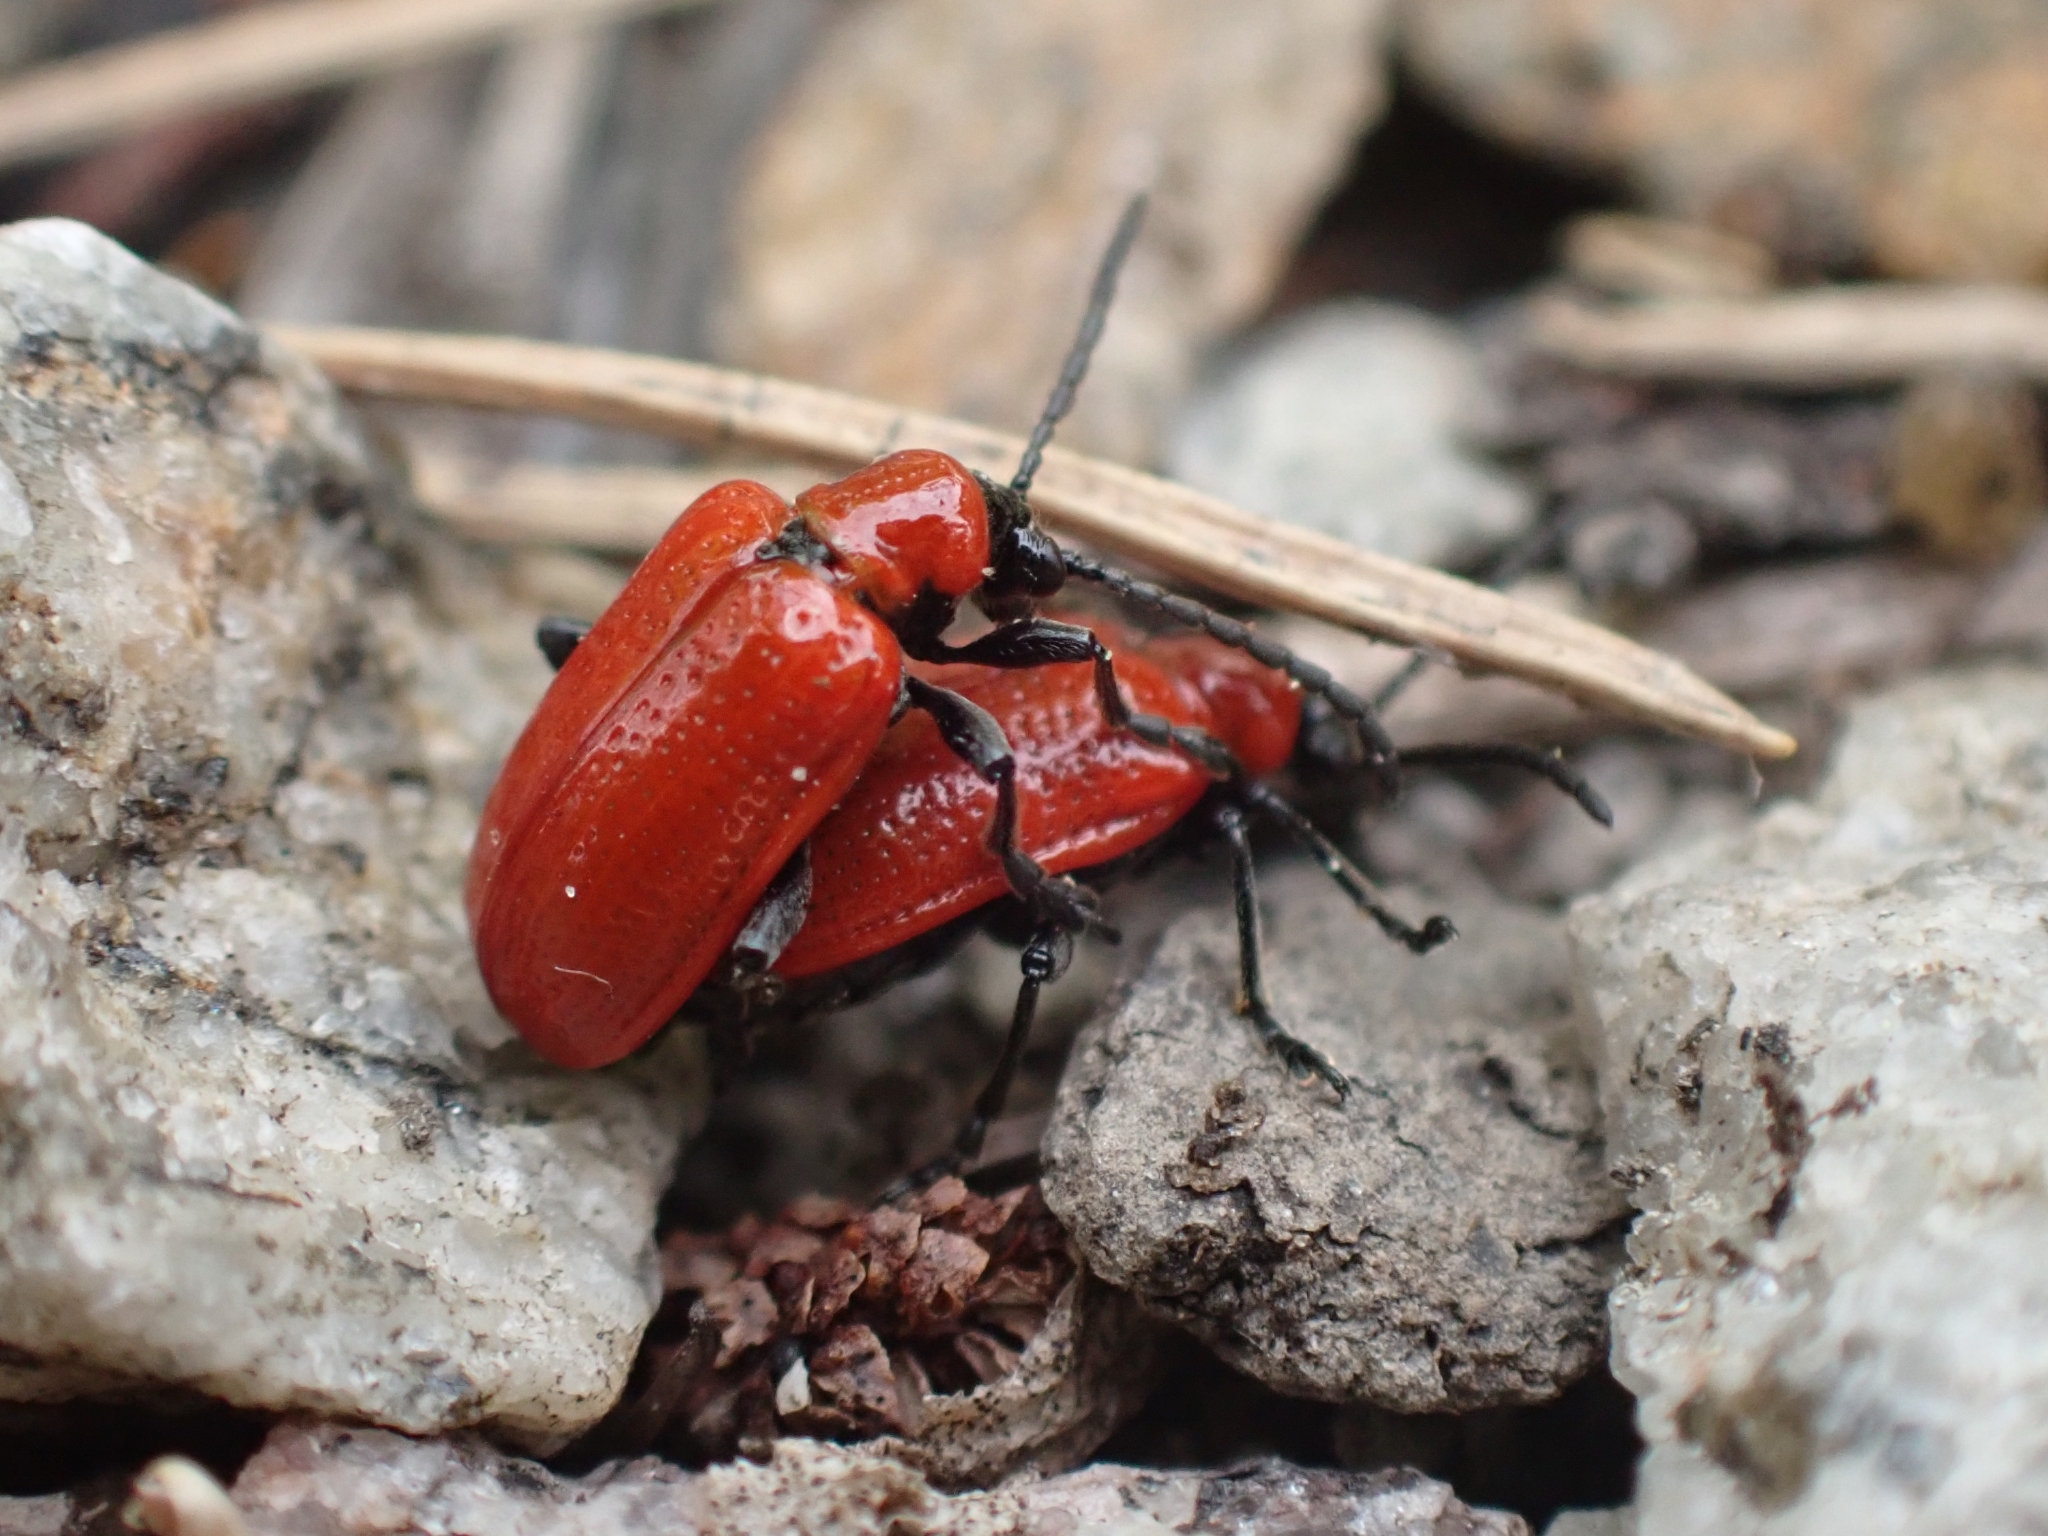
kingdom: Animalia
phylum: Arthropoda
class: Insecta
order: Coleoptera
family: Chrysomelidae
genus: Lilioceris
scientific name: Lilioceris lilii
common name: Lily beetle
